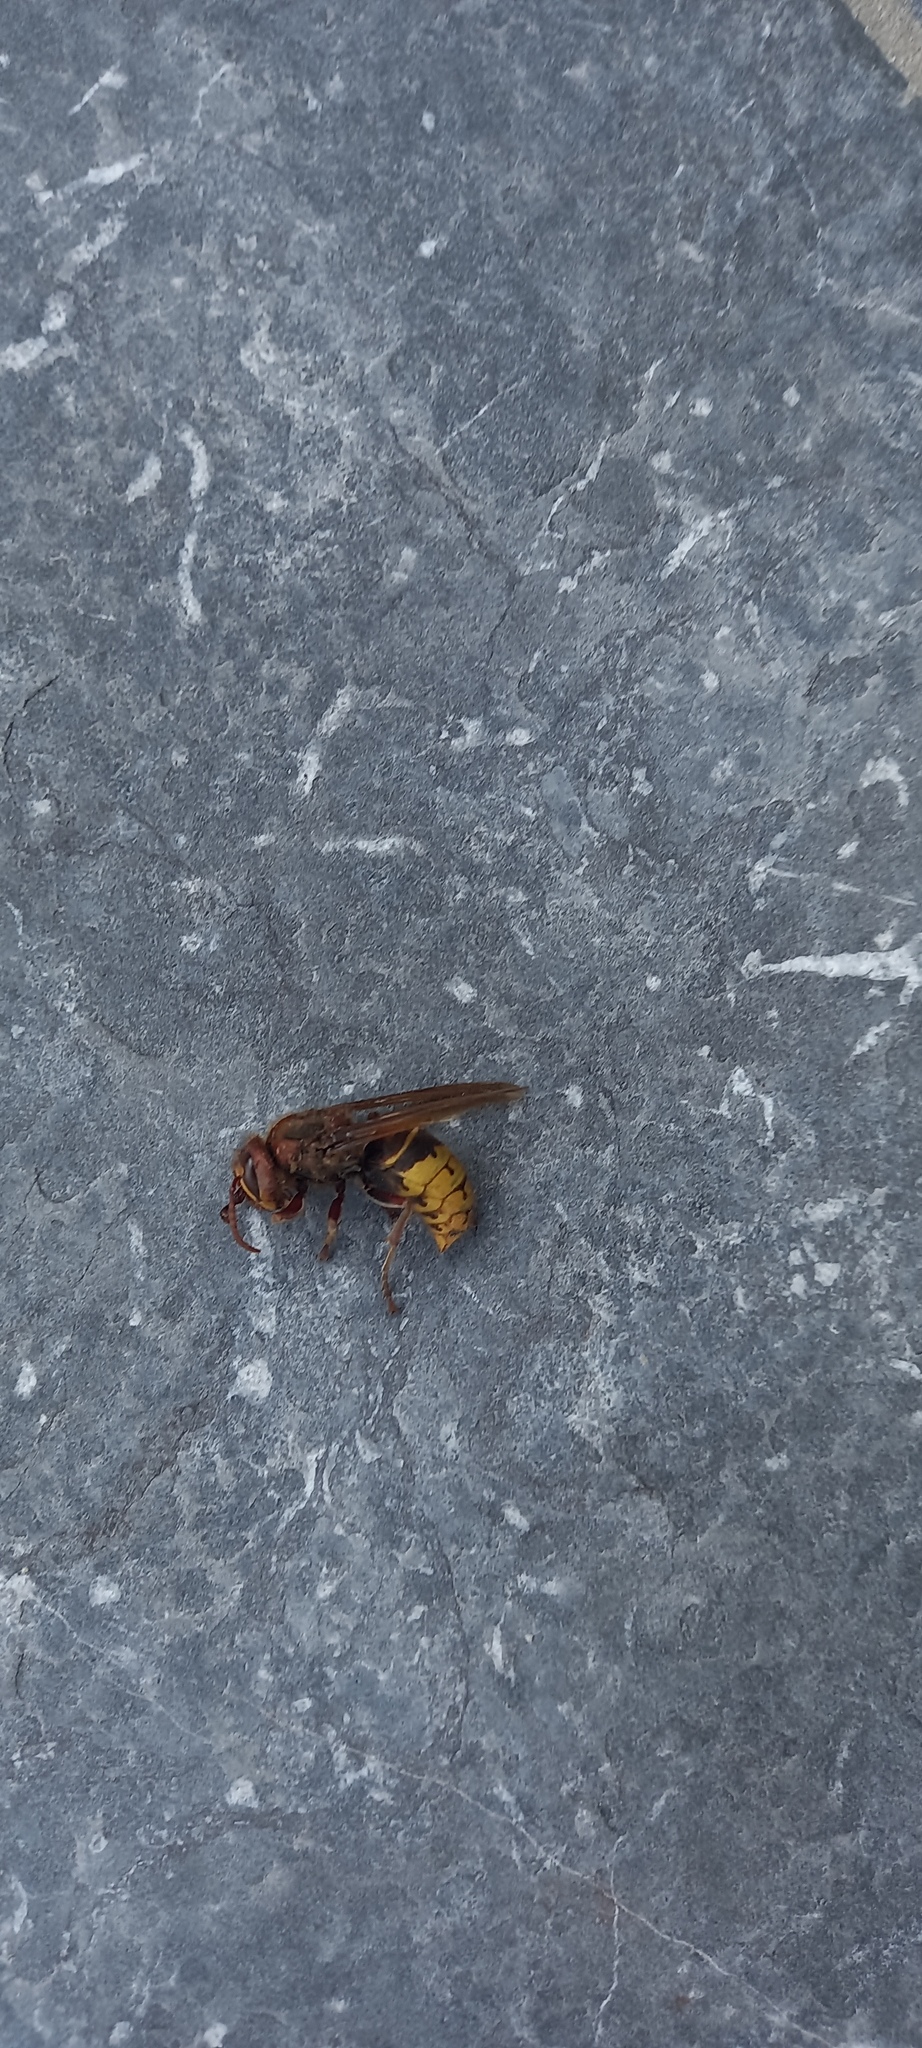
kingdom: Animalia
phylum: Arthropoda
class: Insecta
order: Hymenoptera
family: Vespidae
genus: Vespa
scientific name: Vespa crabro
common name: Hornet
